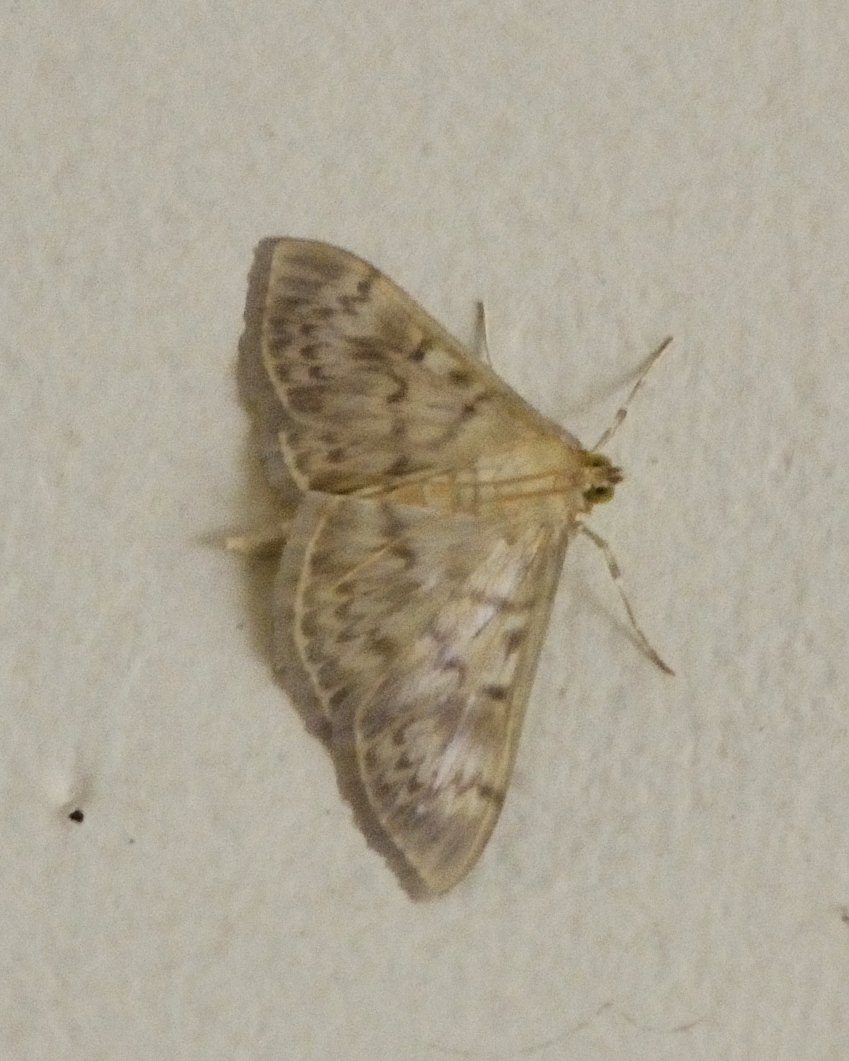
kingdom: Animalia
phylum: Arthropoda
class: Insecta
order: Lepidoptera
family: Crambidae
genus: Patania
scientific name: Patania ruralis
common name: Mother of pearl
